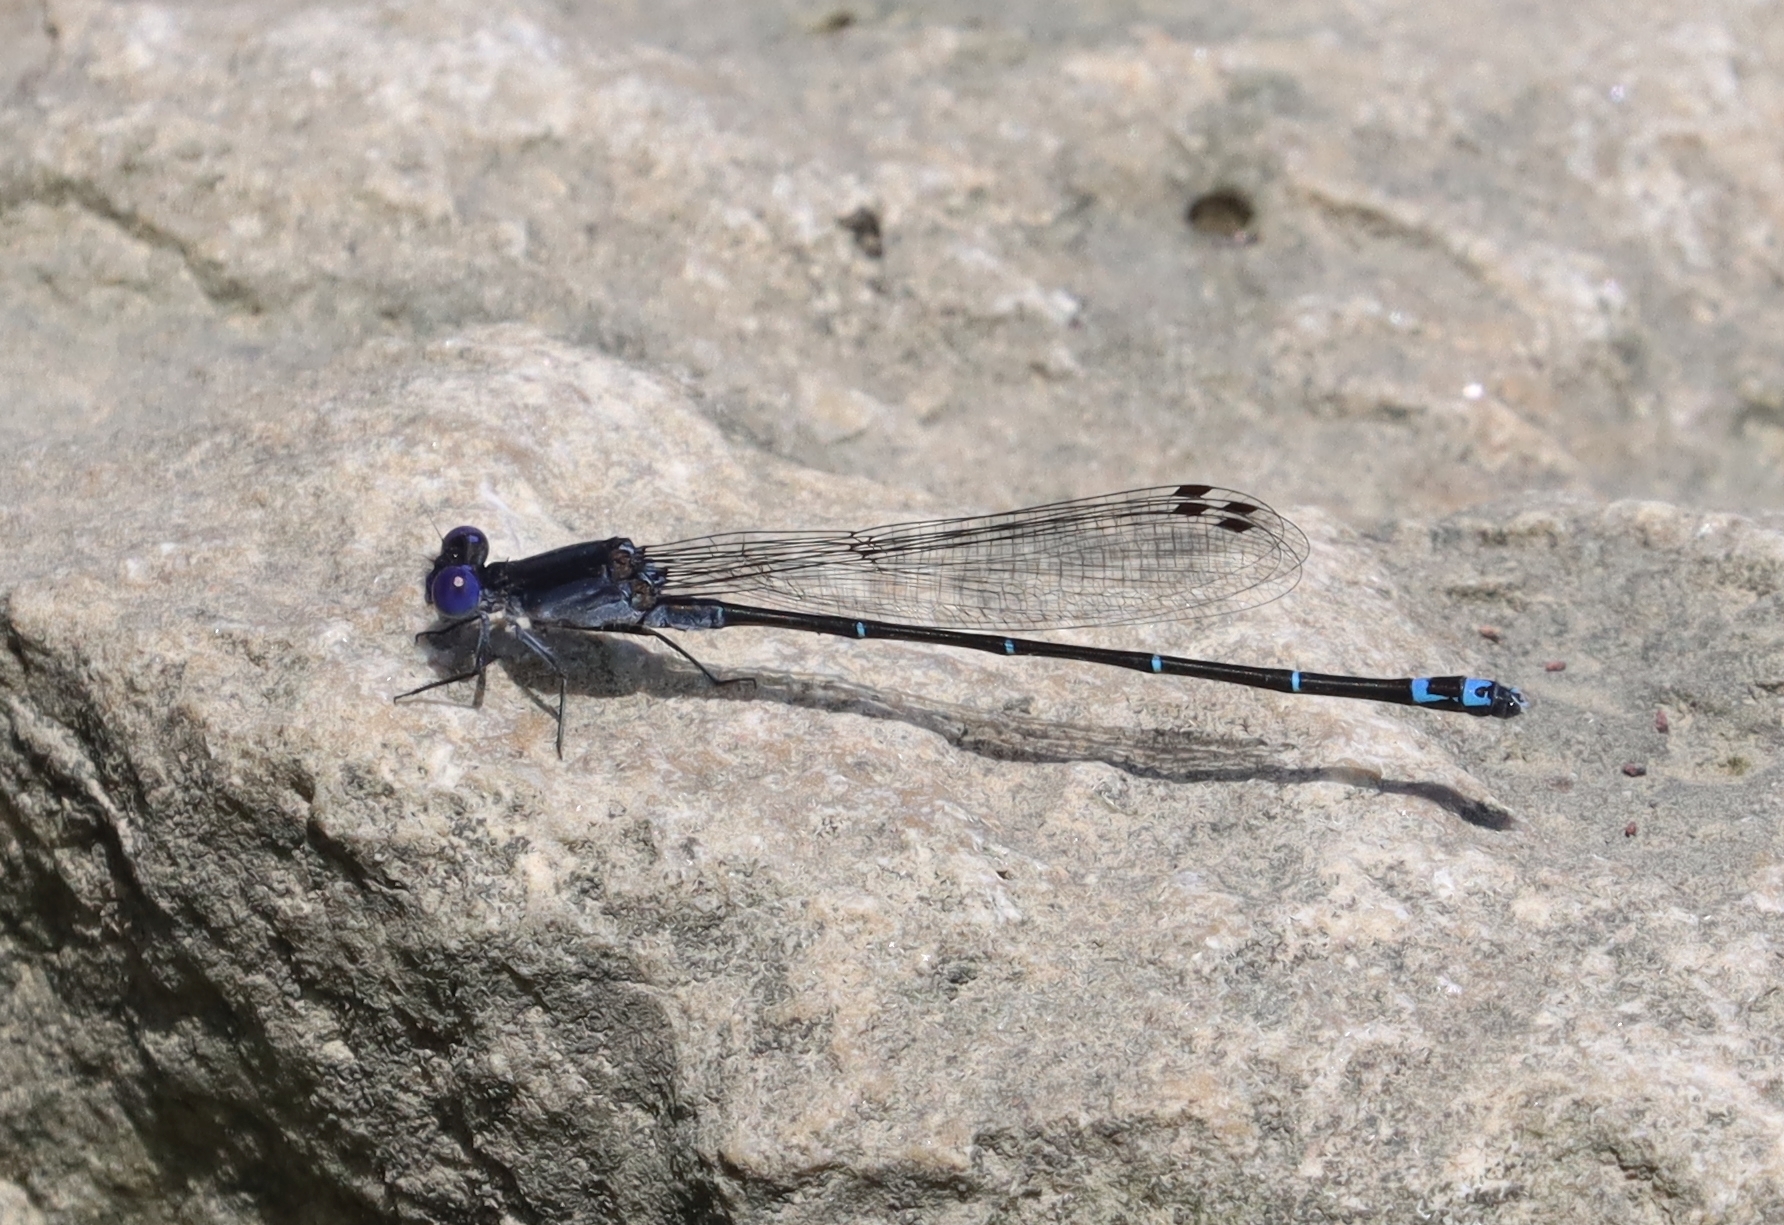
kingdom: Animalia
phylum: Arthropoda
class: Insecta
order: Odonata
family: Coenagrionidae
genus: Argia
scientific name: Argia translata
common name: Dusky dancer
